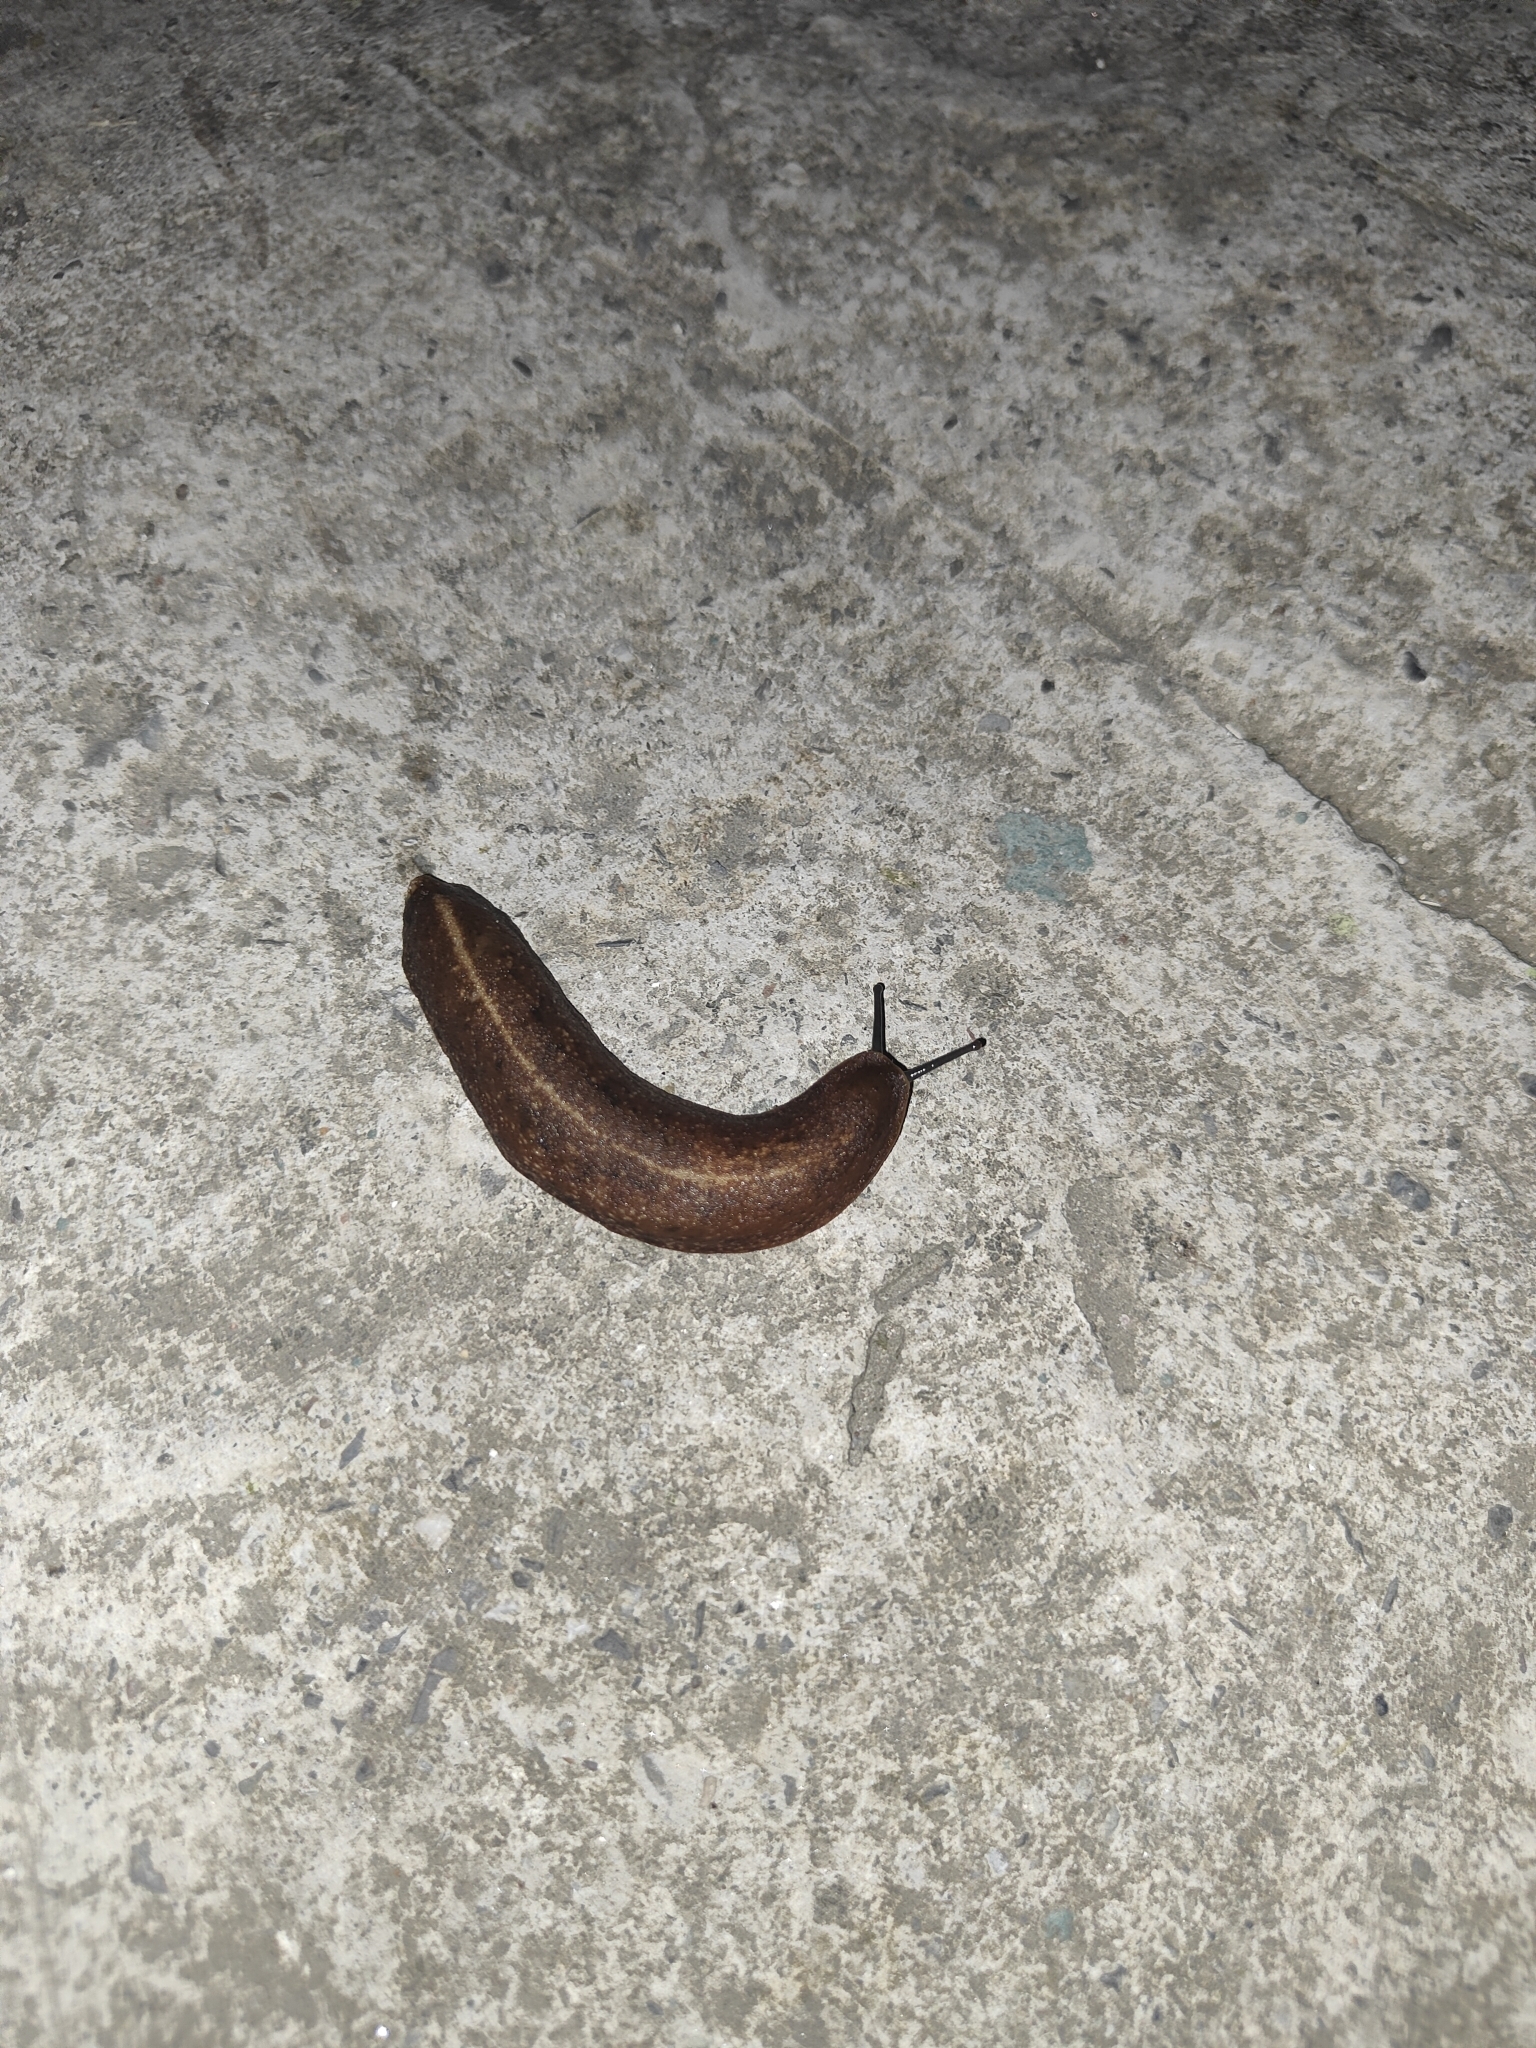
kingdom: Animalia
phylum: Mollusca
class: Gastropoda
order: Systellommatophora
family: Veronicellidae
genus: Laevicaulis
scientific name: Laevicaulis alte
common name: Tropical leatherleaf
